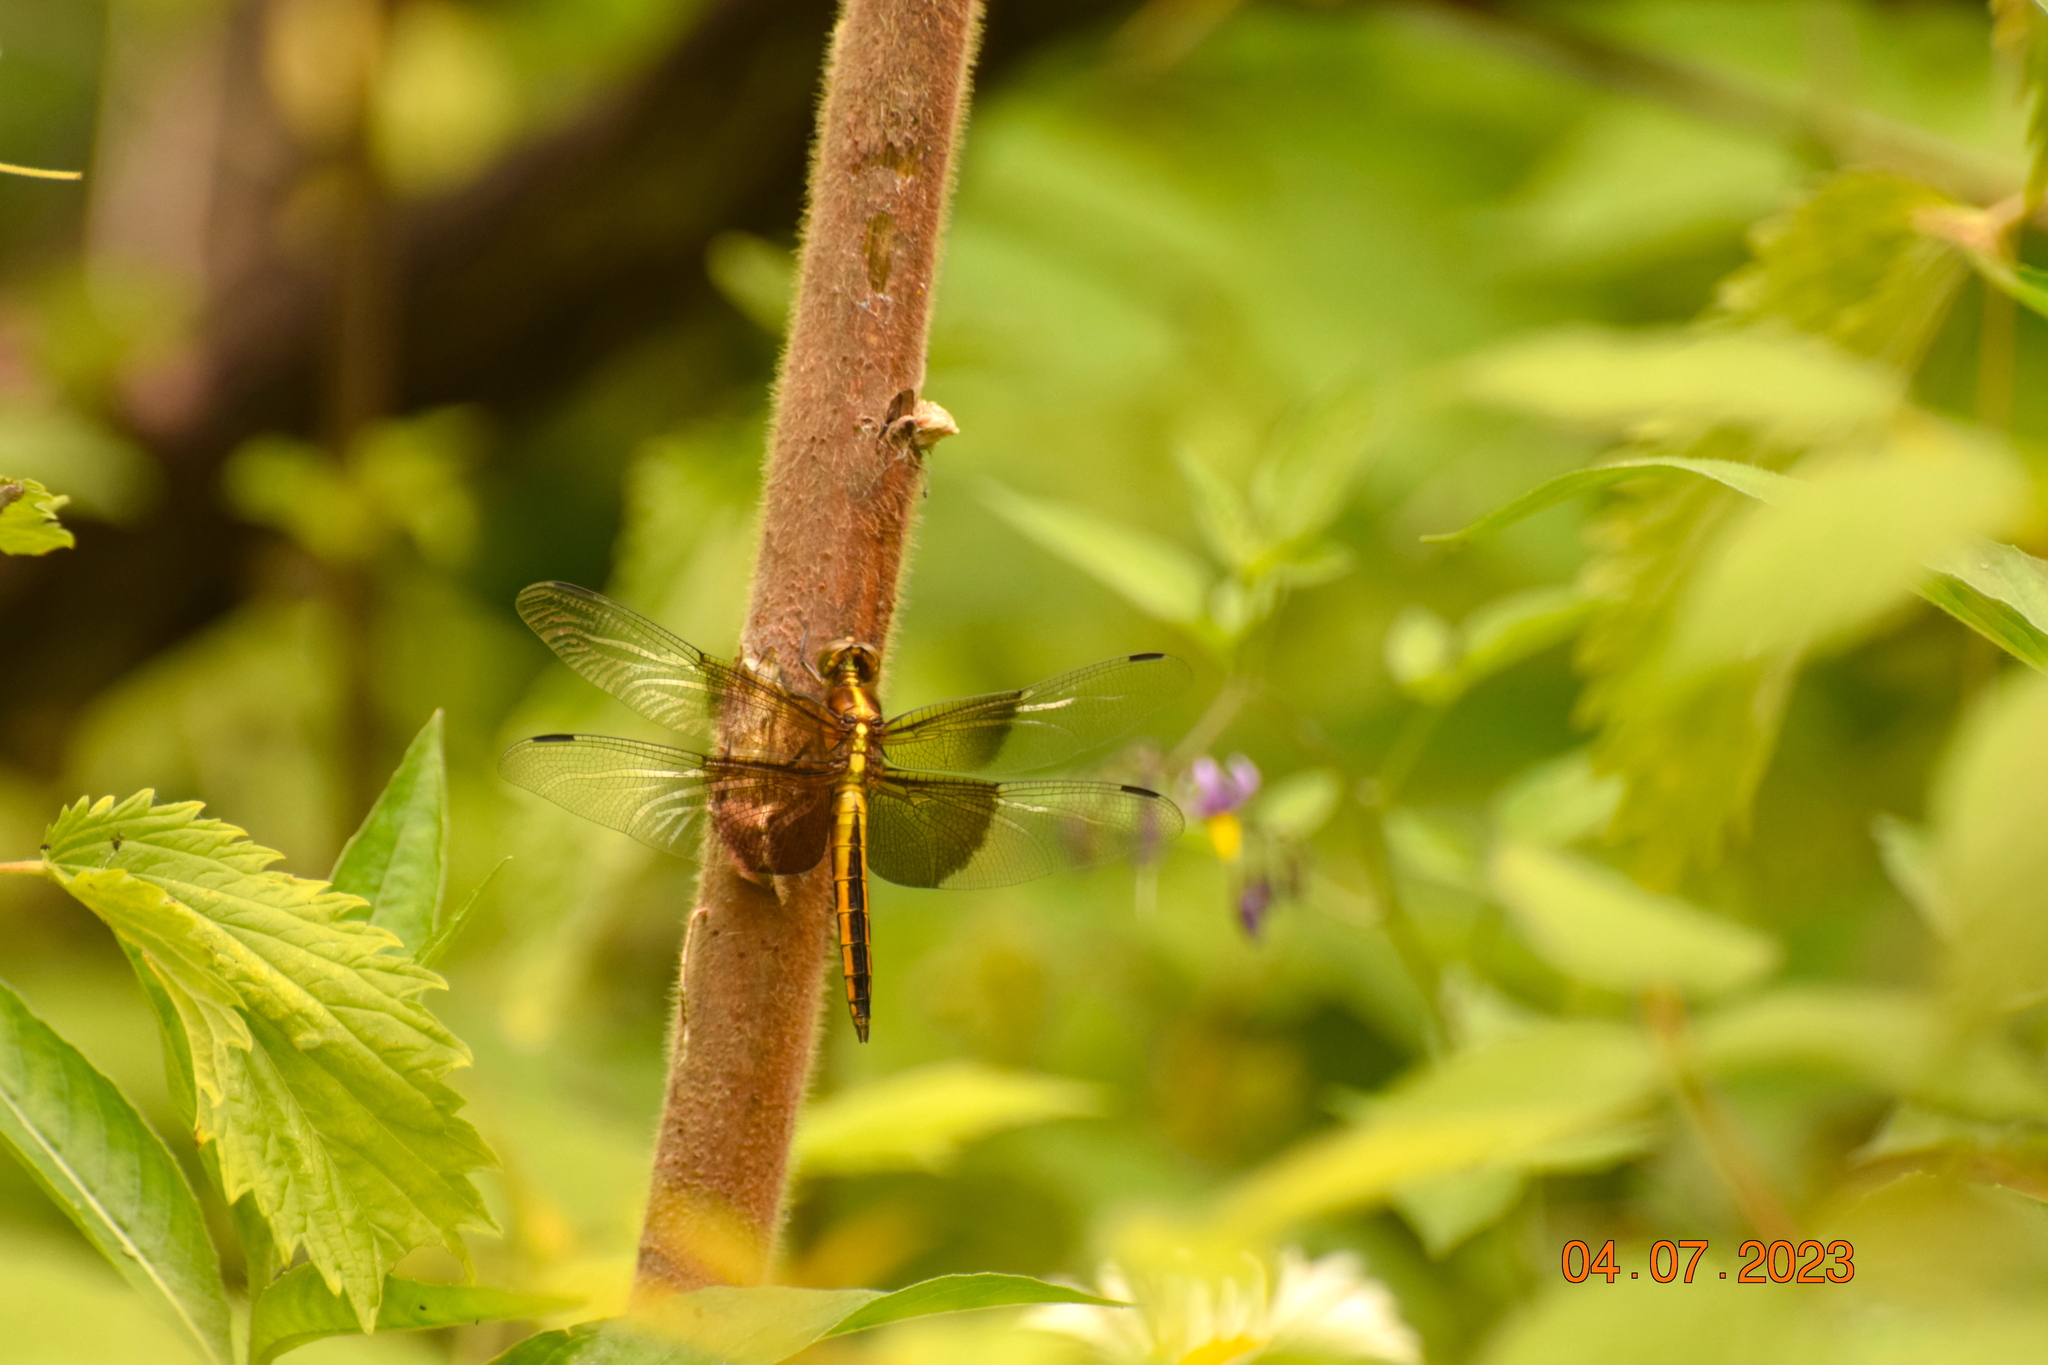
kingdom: Animalia
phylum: Arthropoda
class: Insecta
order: Odonata
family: Libellulidae
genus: Libellula
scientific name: Libellula luctuosa
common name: Widow skimmer
